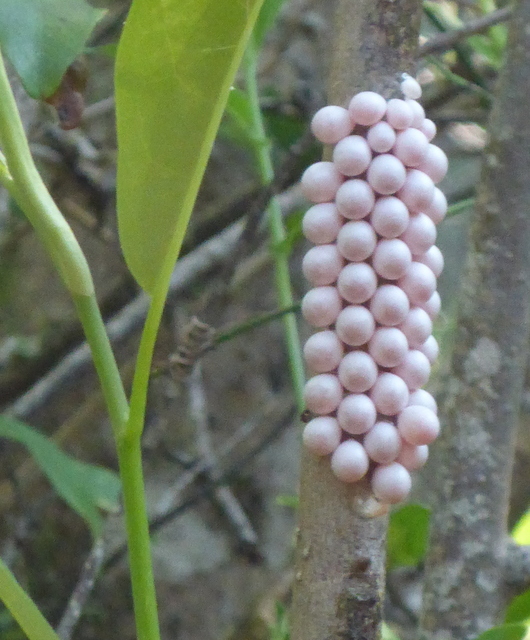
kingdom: Animalia
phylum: Mollusca
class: Gastropoda
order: Architaenioglossa
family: Ampullariidae
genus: Pomacea
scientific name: Pomacea paludosa
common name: Florida applesnail
